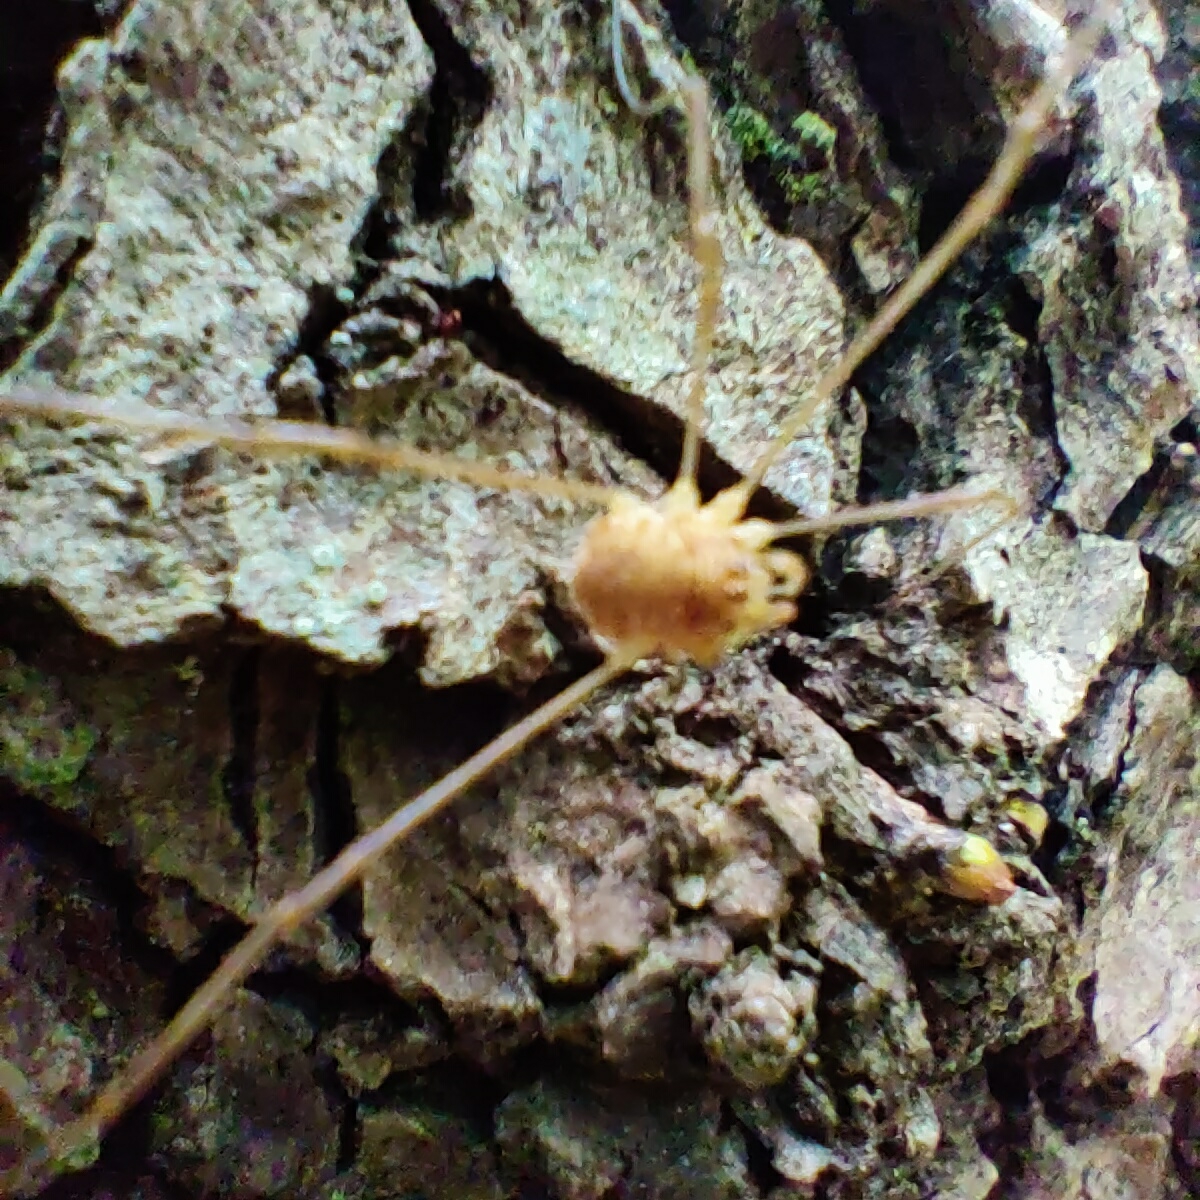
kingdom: Animalia
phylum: Arthropoda
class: Arachnida
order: Opiliones
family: Phalangiidae
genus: Rilaena
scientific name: Rilaena triangularis
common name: Spring harvestman
